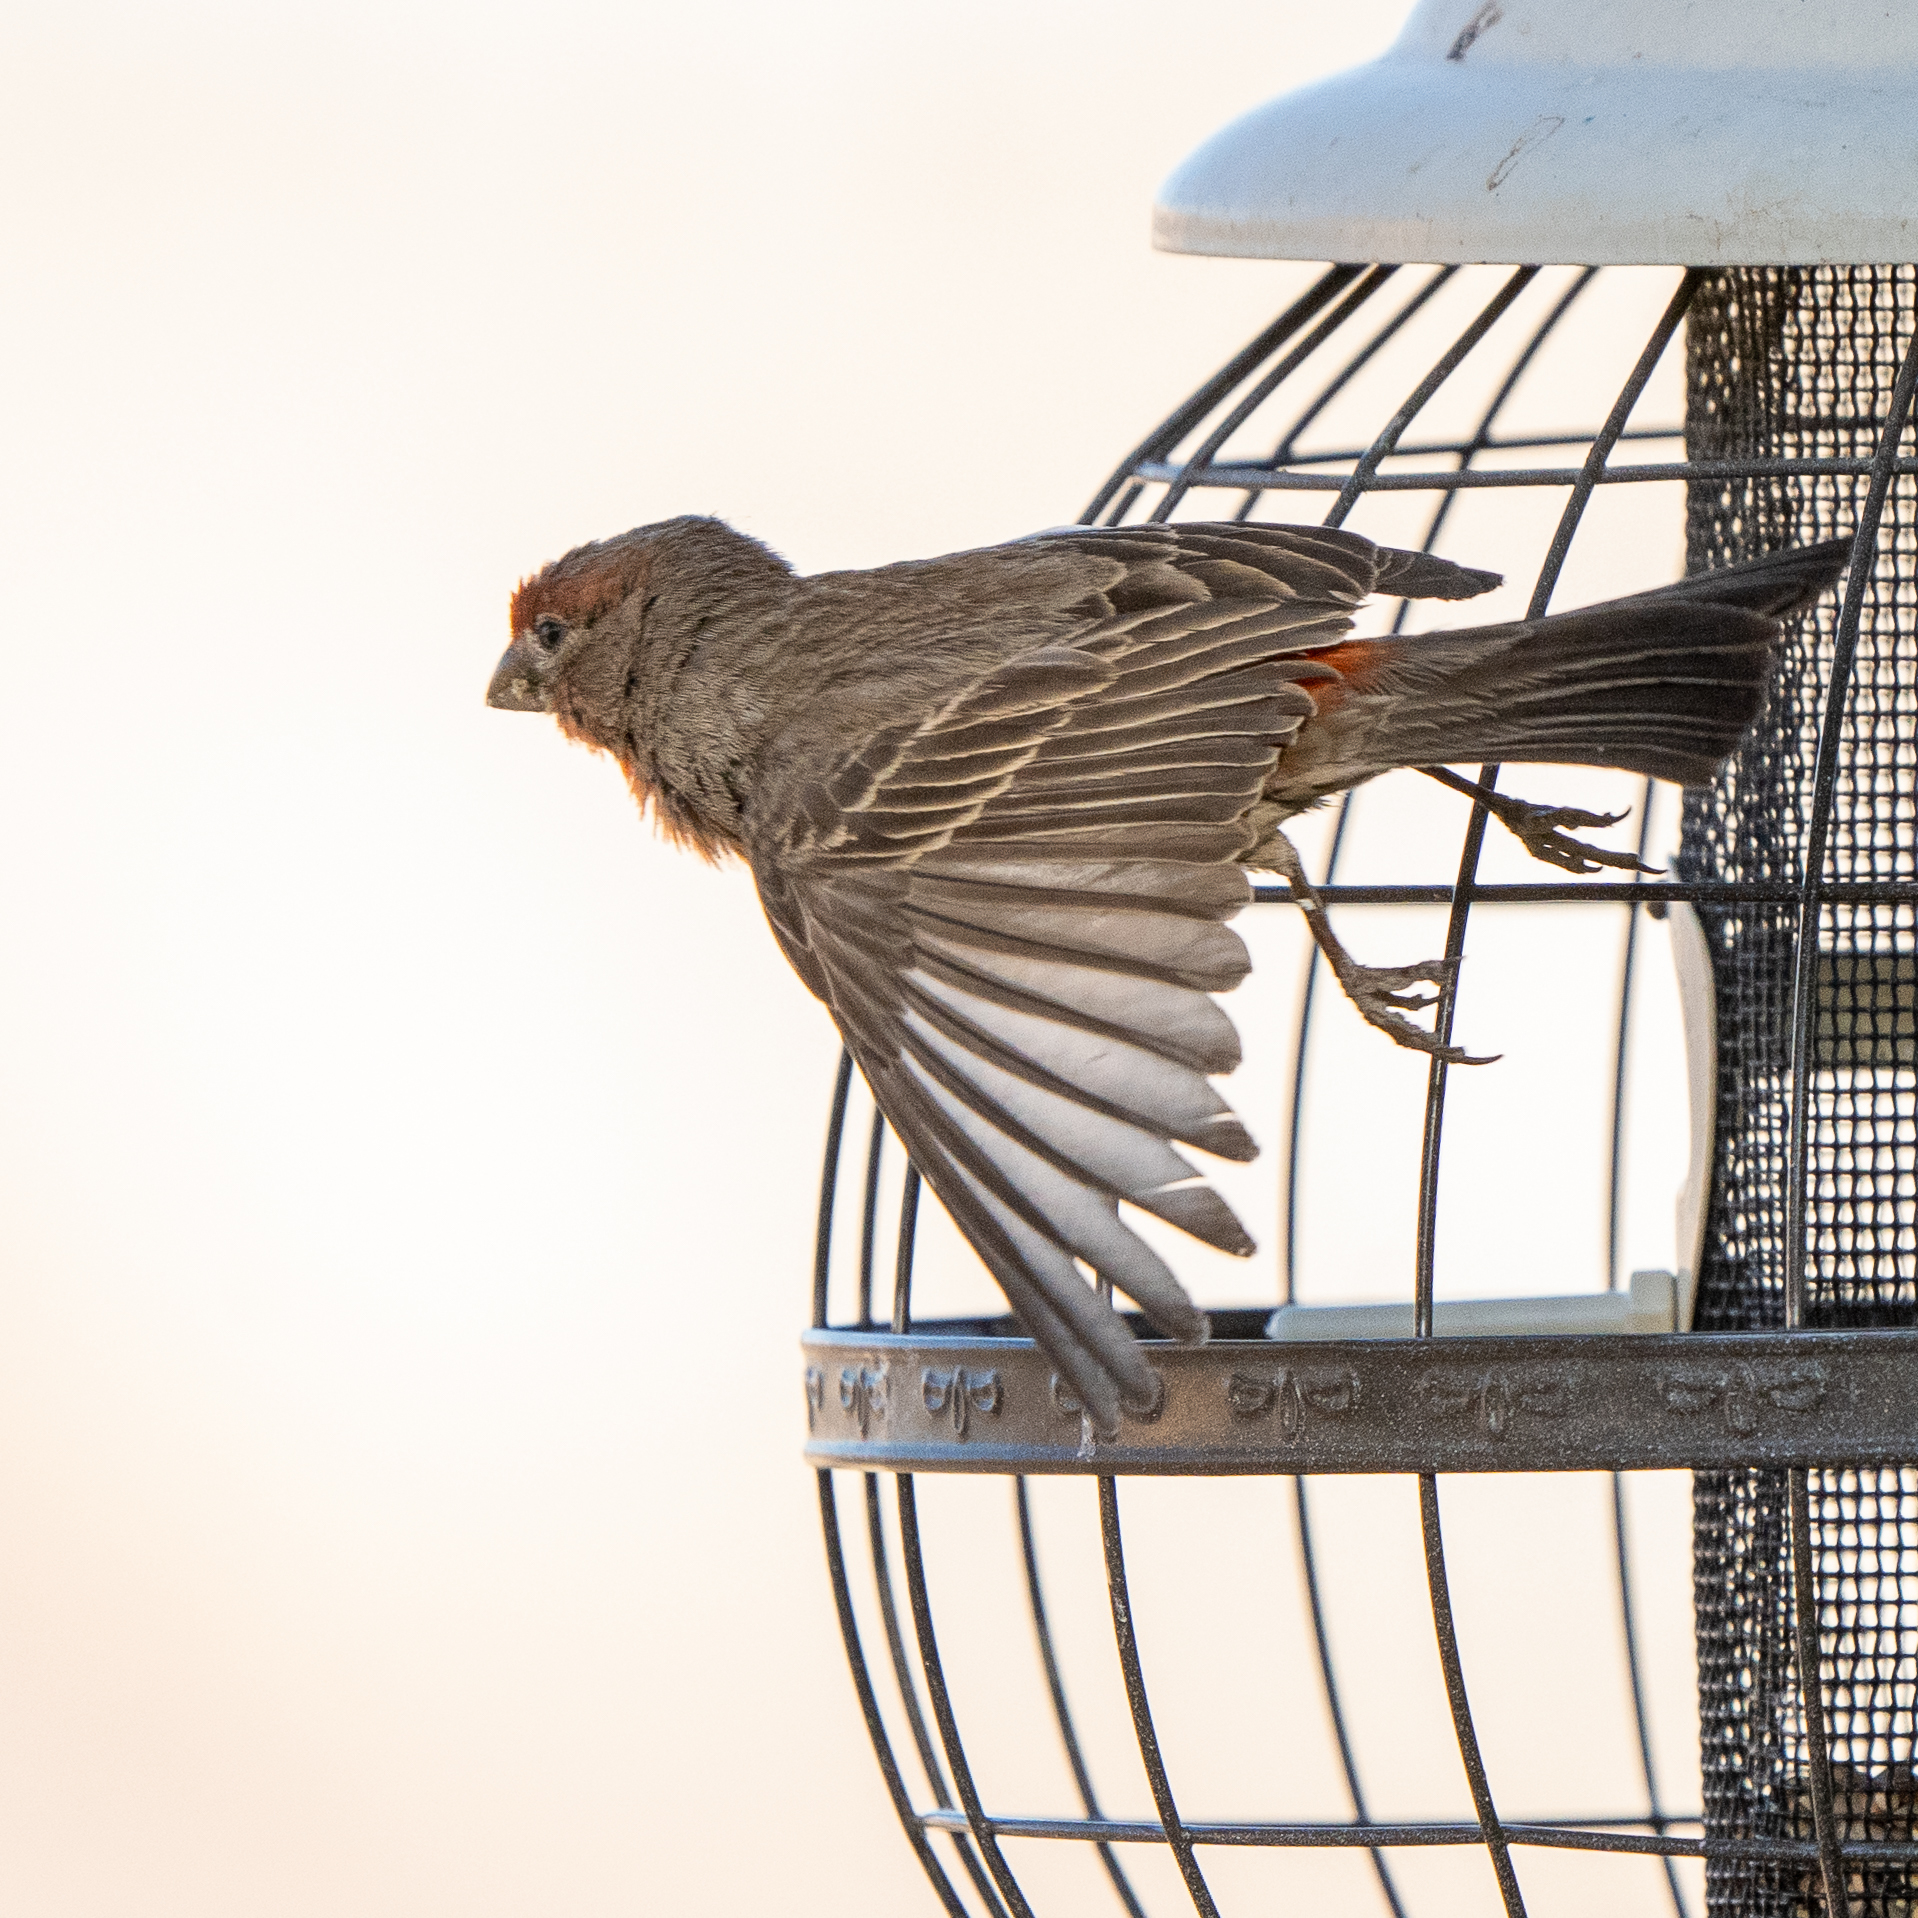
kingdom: Animalia
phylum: Chordata
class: Aves
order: Passeriformes
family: Fringillidae
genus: Haemorhous
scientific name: Haemorhous mexicanus
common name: House finch
